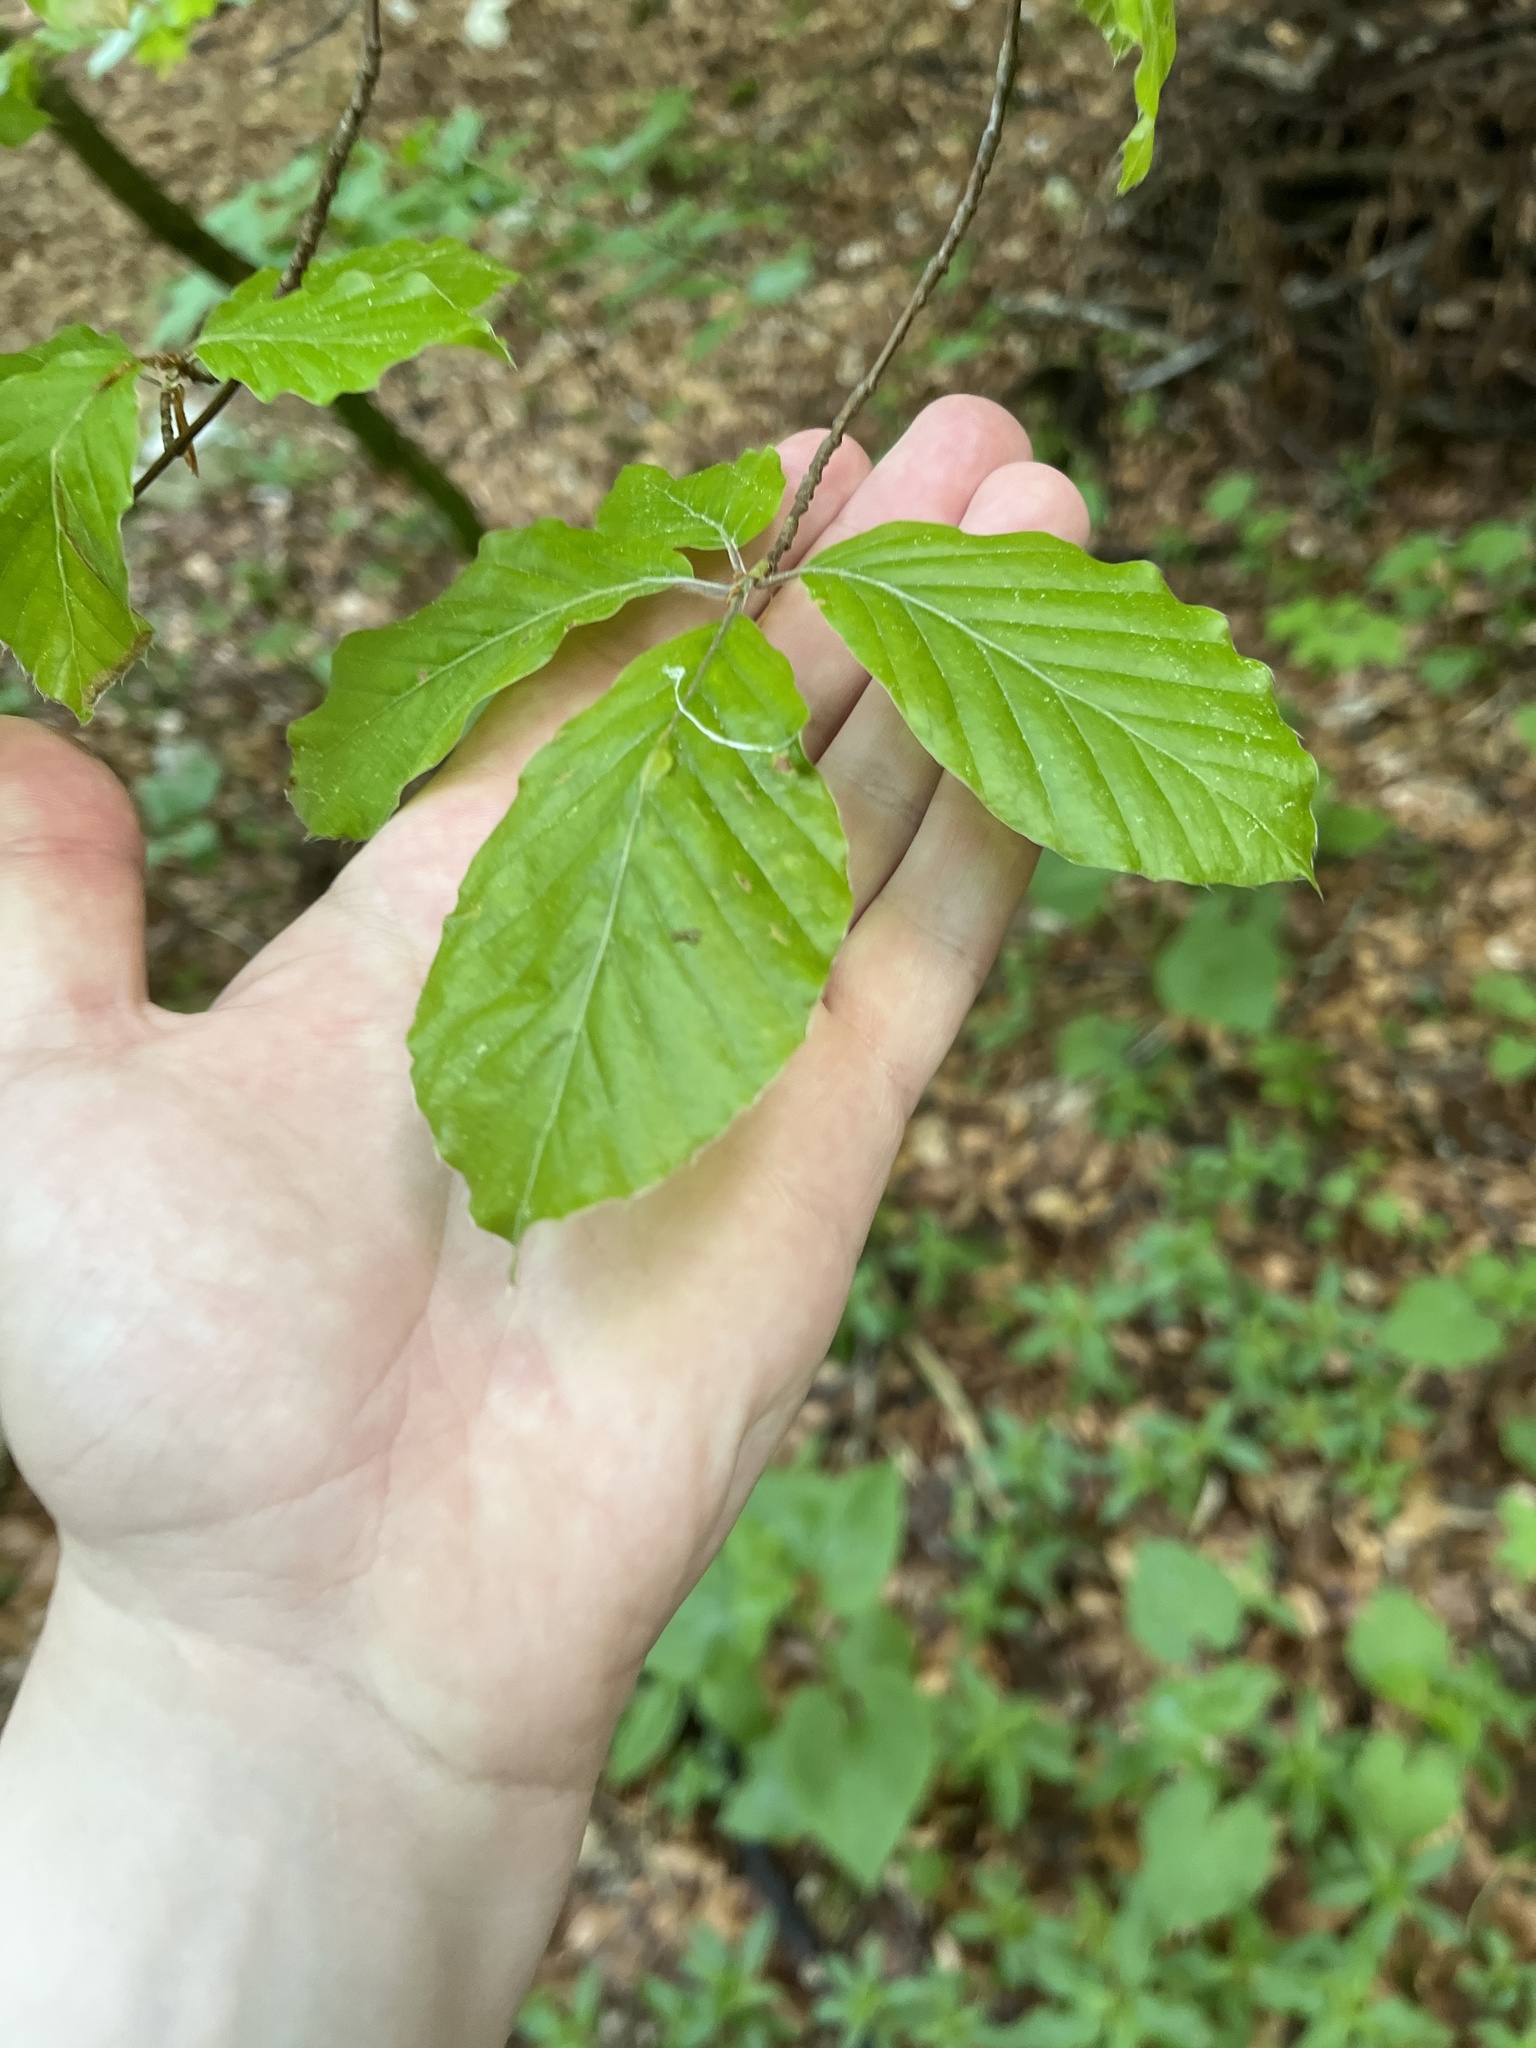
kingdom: Plantae
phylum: Tracheophyta
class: Magnoliopsida
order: Fagales
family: Fagaceae
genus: Fagus
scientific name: Fagus sylvatica
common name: Beech
